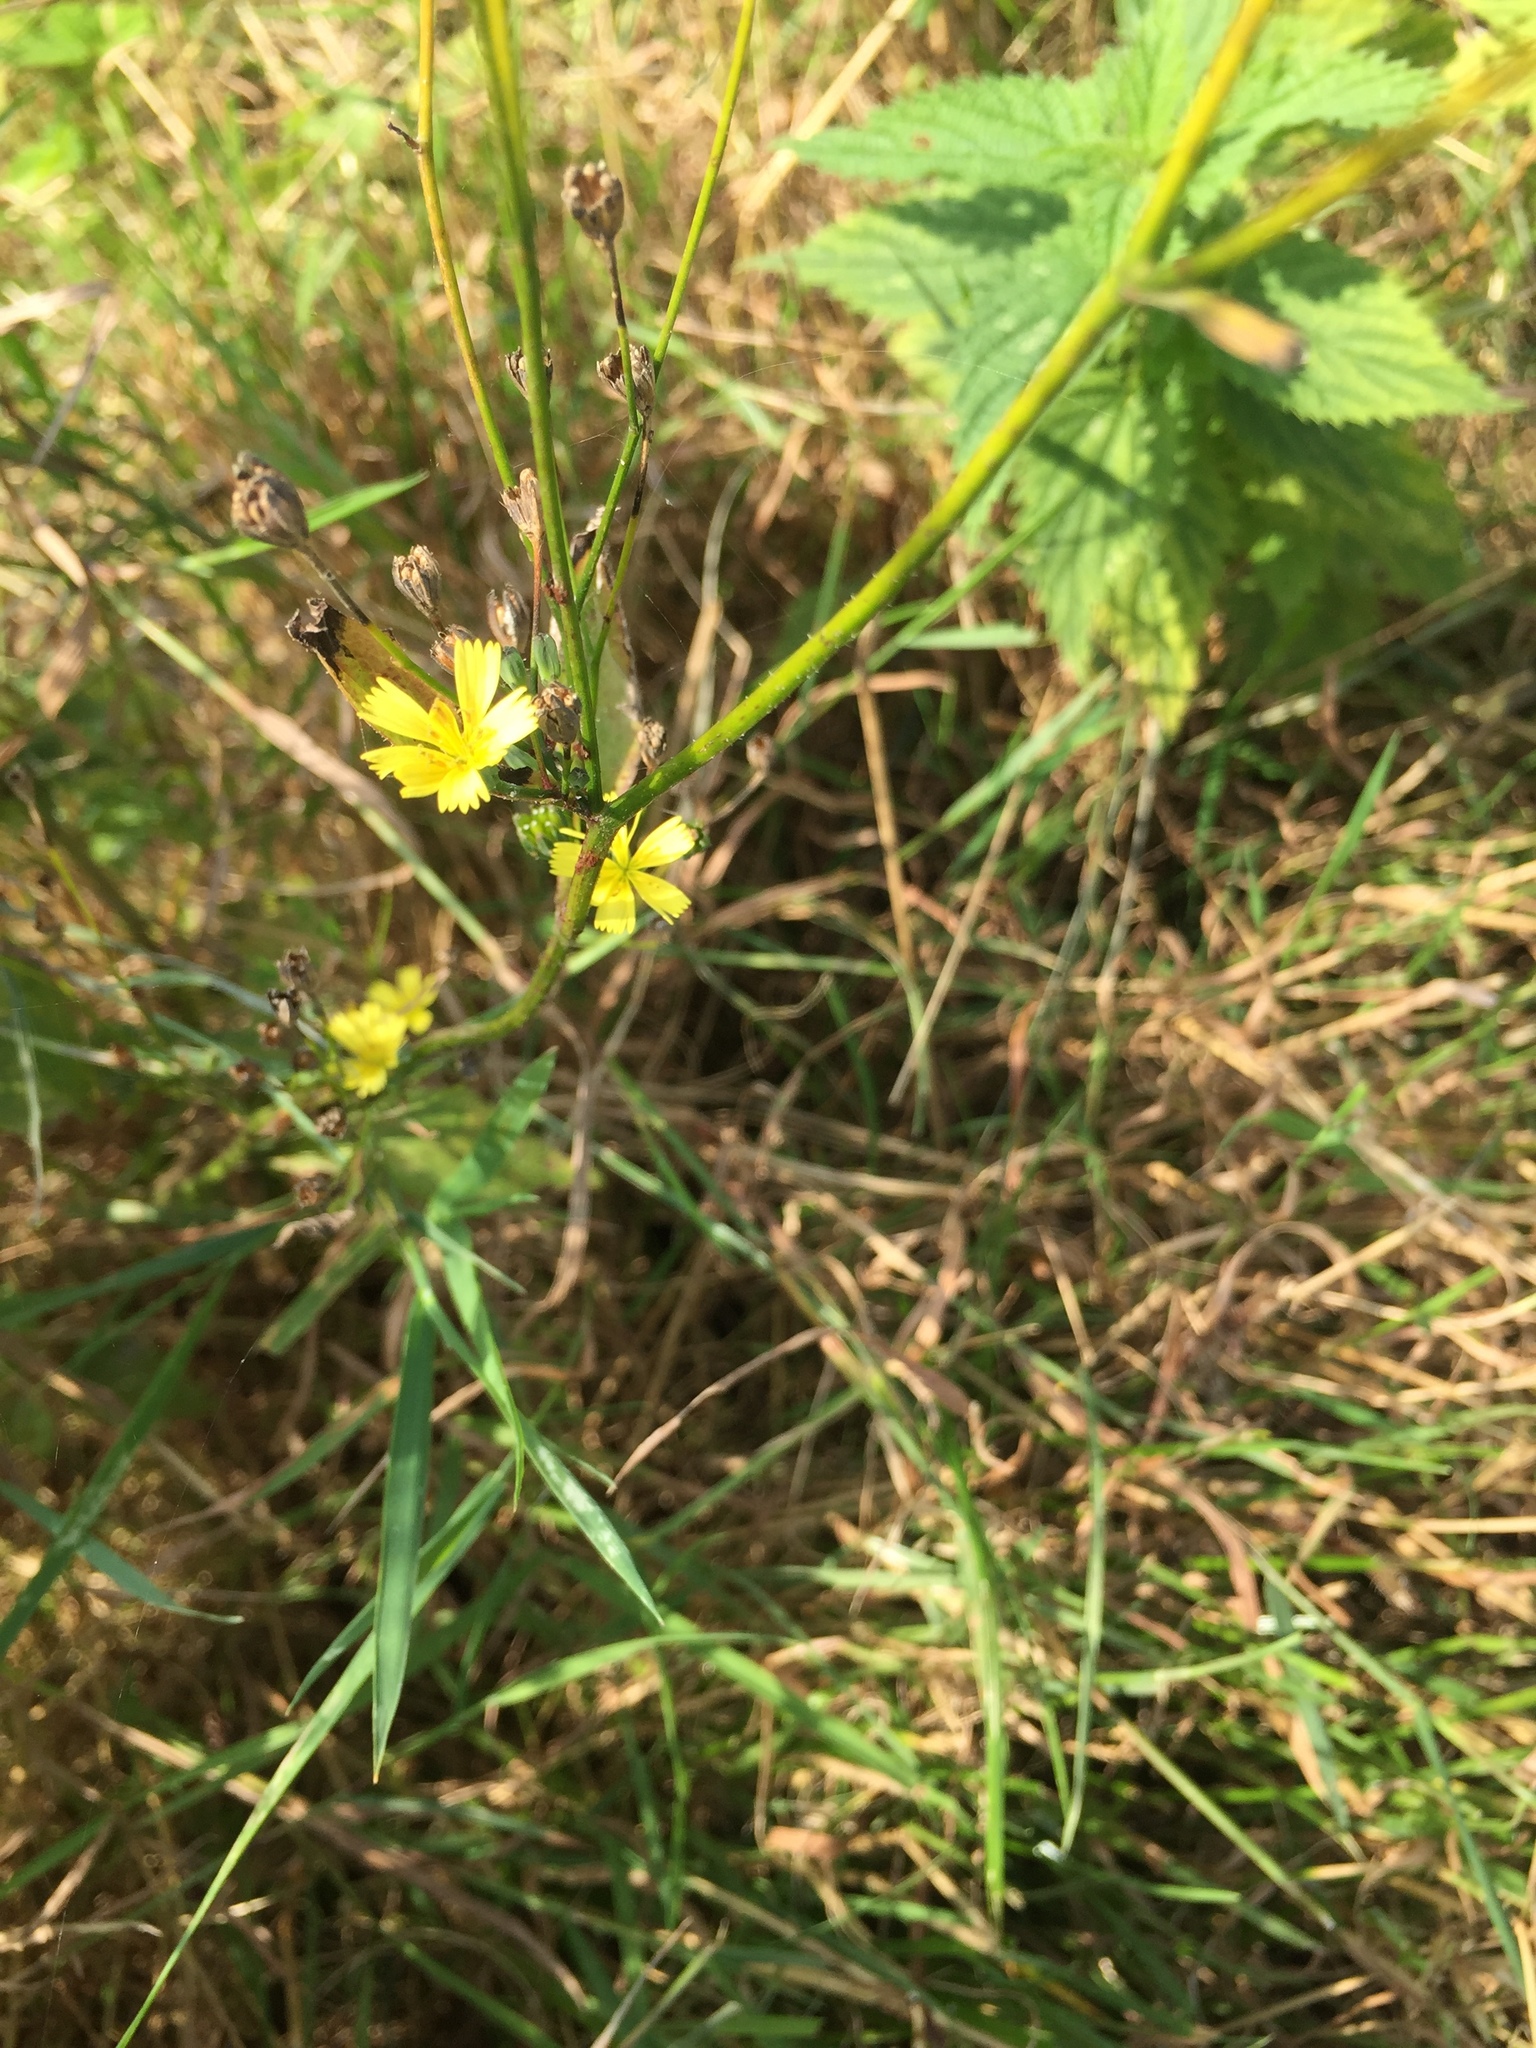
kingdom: Plantae
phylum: Tracheophyta
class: Magnoliopsida
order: Asterales
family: Asteraceae
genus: Lapsana
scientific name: Lapsana communis
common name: Nipplewort
